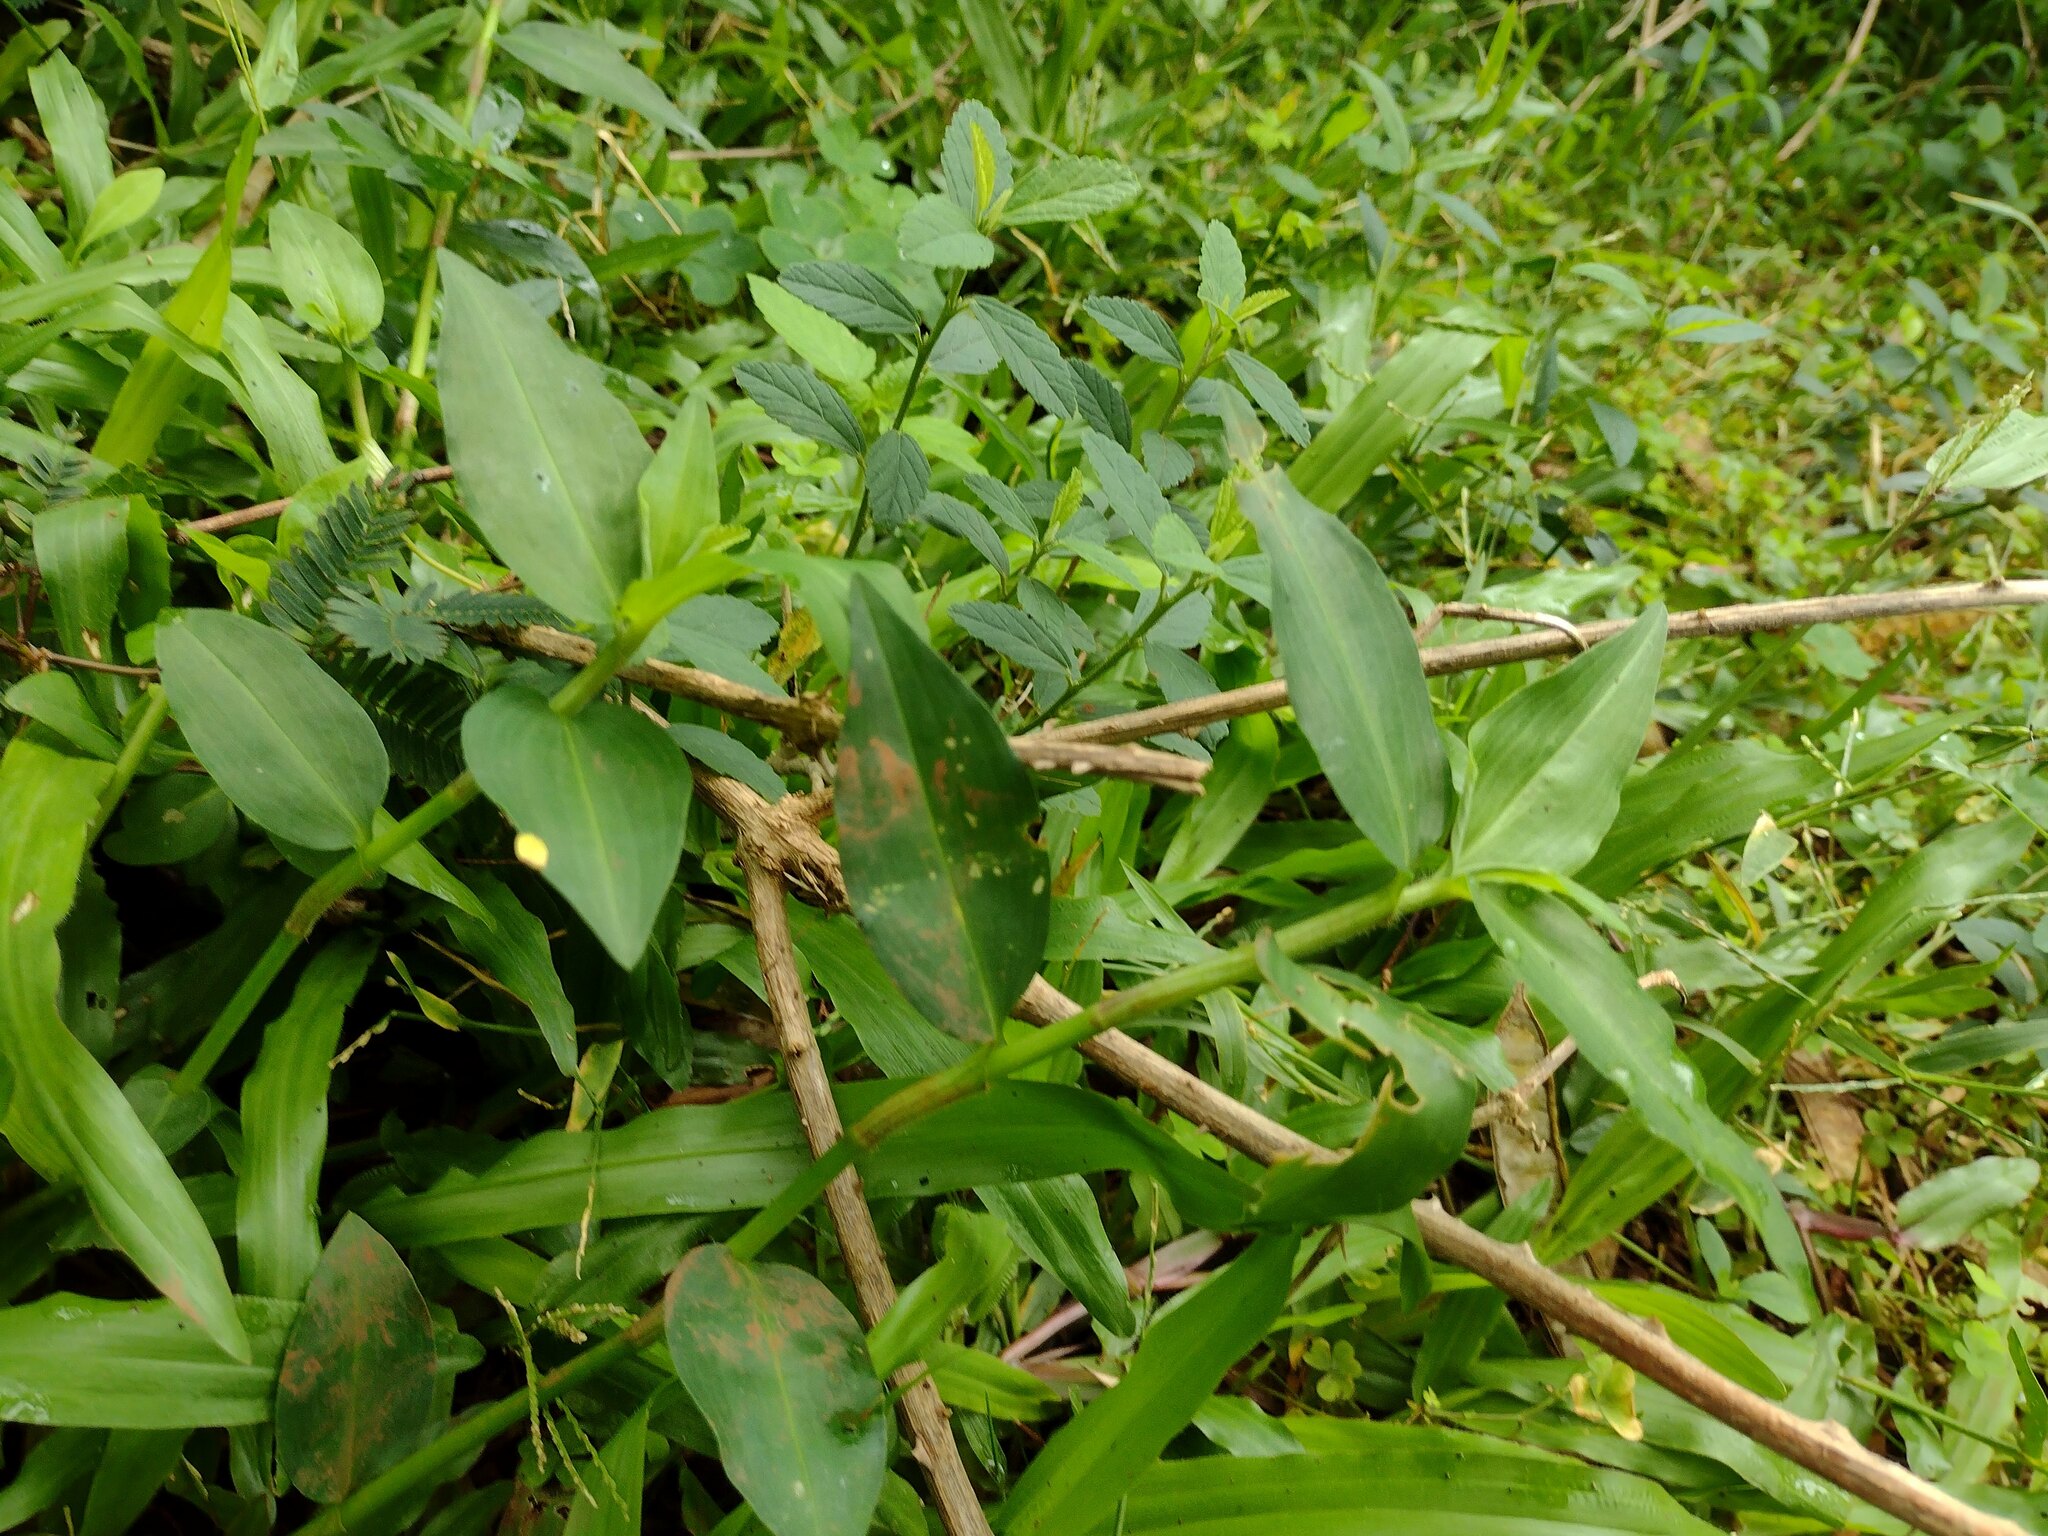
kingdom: Plantae
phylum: Tracheophyta
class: Liliopsida
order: Commelinales
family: Commelinaceae
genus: Commelina
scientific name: Commelina diffusa
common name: Climbing dayflower
